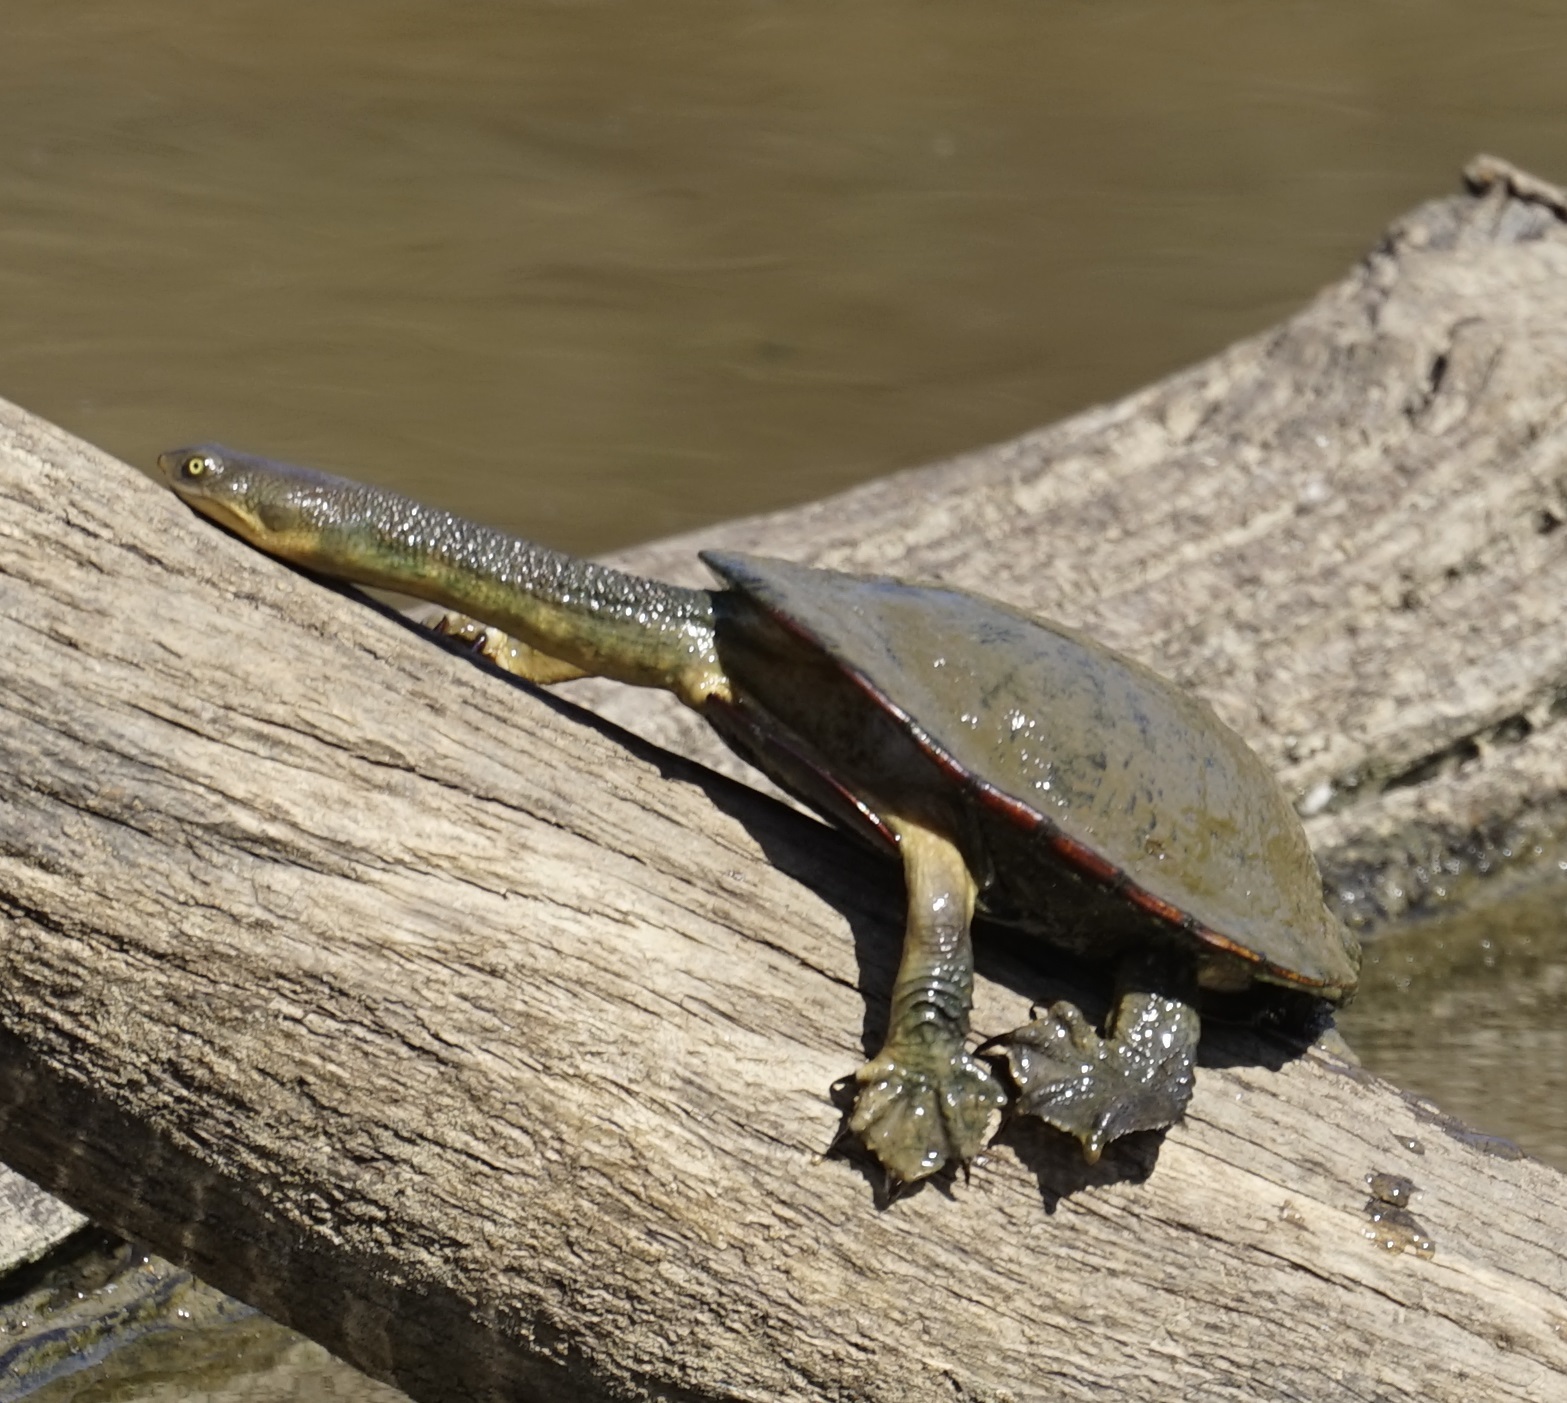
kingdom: Animalia
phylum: Chordata
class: Testudines
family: Chelidae
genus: Chelodina
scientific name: Chelodina longicollis
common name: Eastern snake-necked turtle
